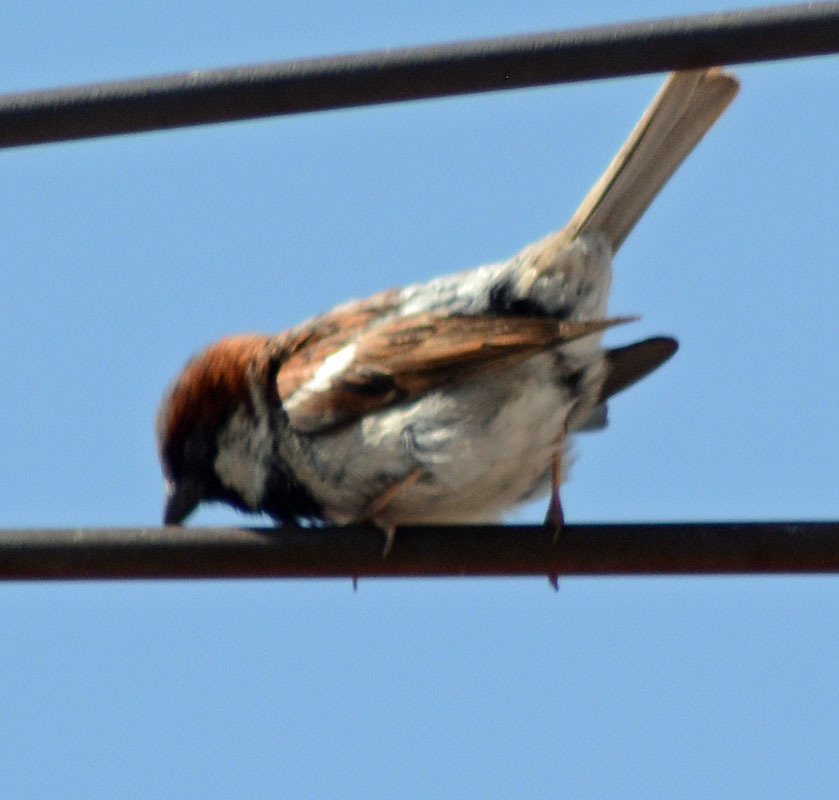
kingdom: Animalia
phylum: Chordata
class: Aves
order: Passeriformes
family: Passeridae
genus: Passer
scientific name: Passer domesticus
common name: House sparrow
